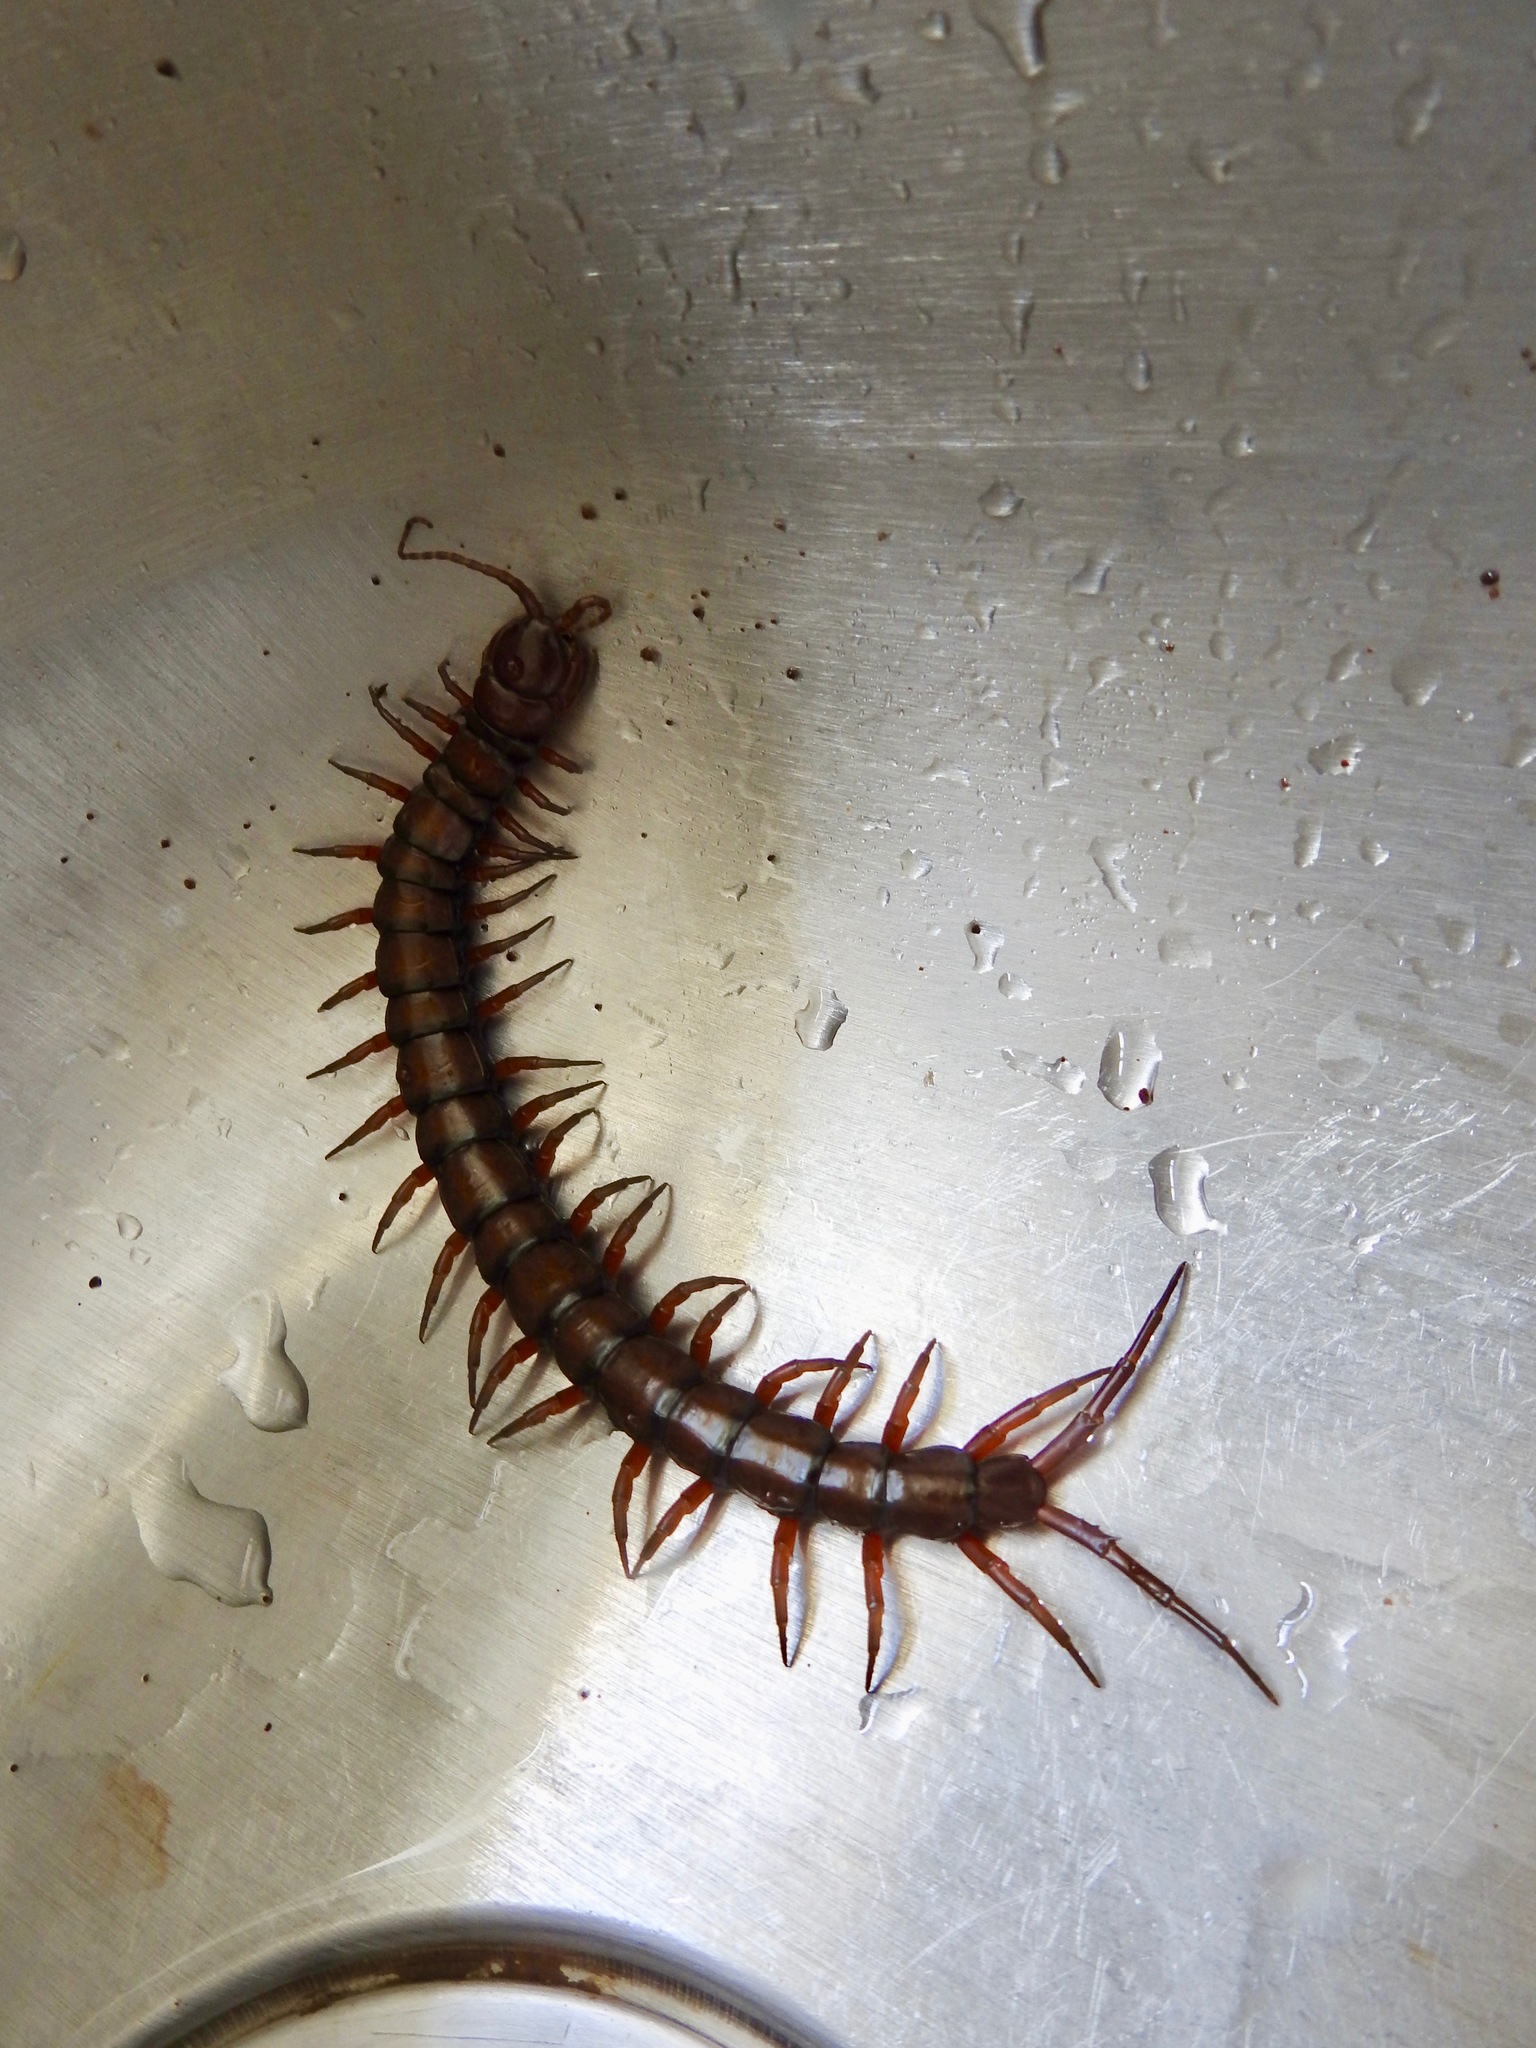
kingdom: Animalia
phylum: Arthropoda
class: Chilopoda
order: Scolopendromorpha
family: Scolopendridae
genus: Scolopendra
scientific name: Scolopendra subspinipes
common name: Centipede
